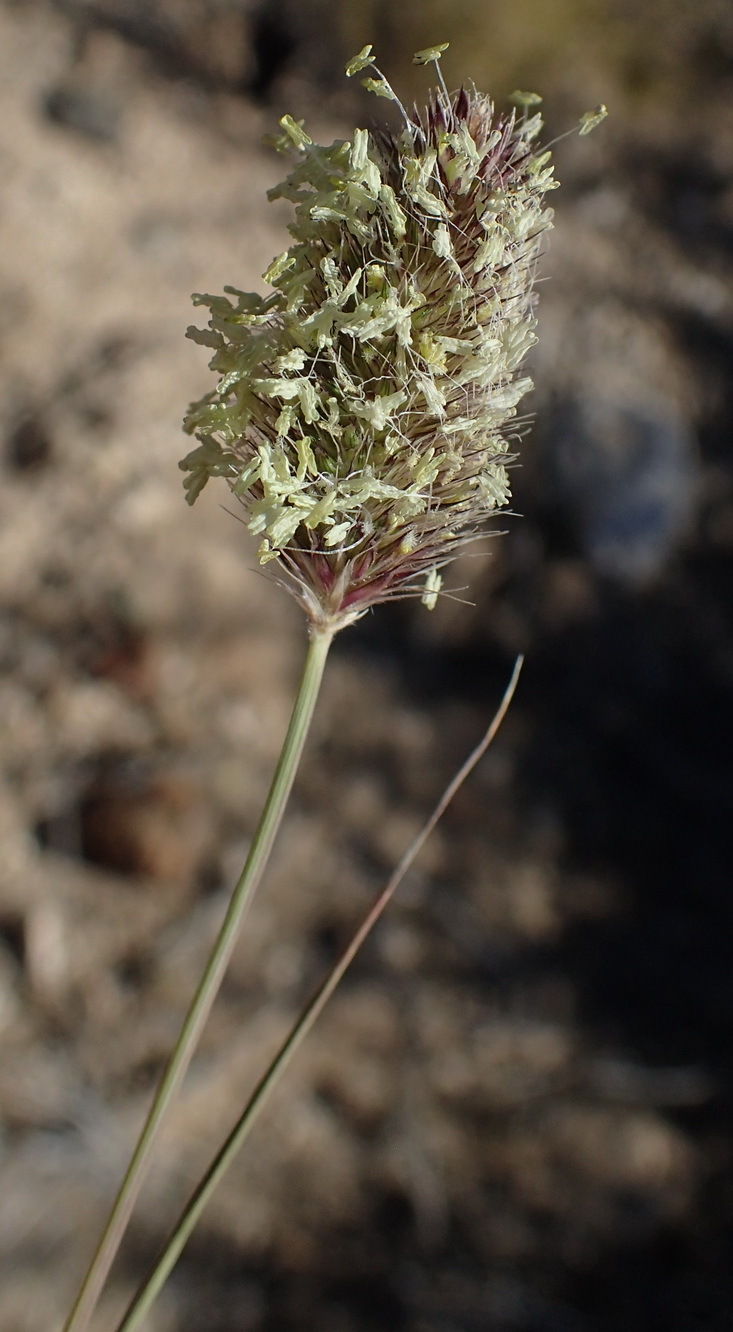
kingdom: Plantae
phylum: Tracheophyta
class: Liliopsida
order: Poales
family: Poaceae
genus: Fingerhuthia
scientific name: Fingerhuthia africana
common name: Zulu fescue
